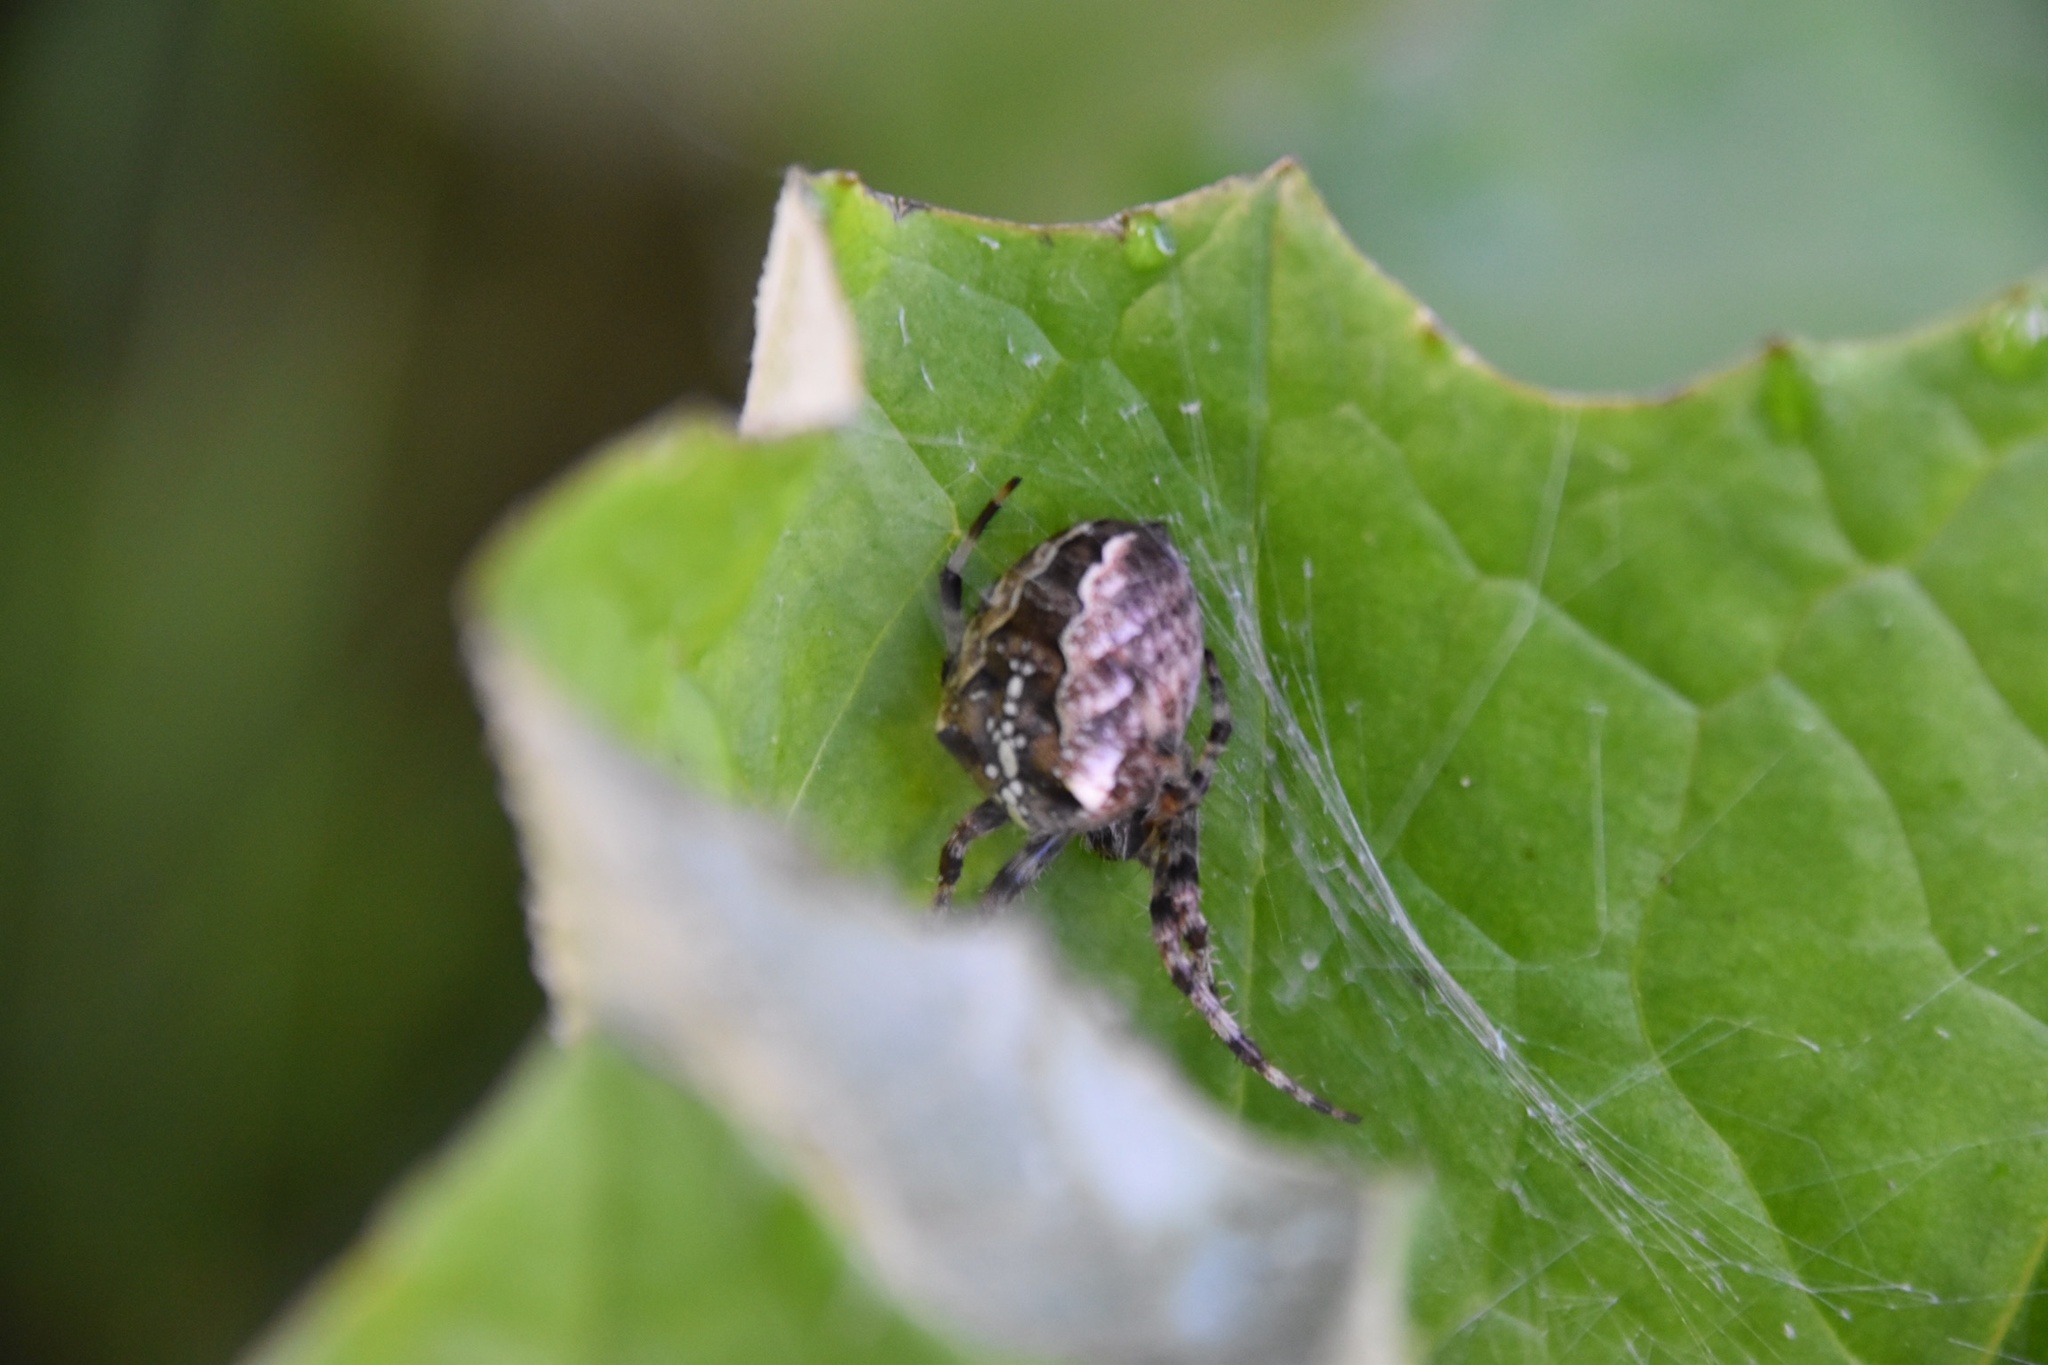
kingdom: Animalia
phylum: Arthropoda
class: Arachnida
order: Araneae
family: Araneidae
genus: Araneus
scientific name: Araneus diadematus
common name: Cross orbweaver
